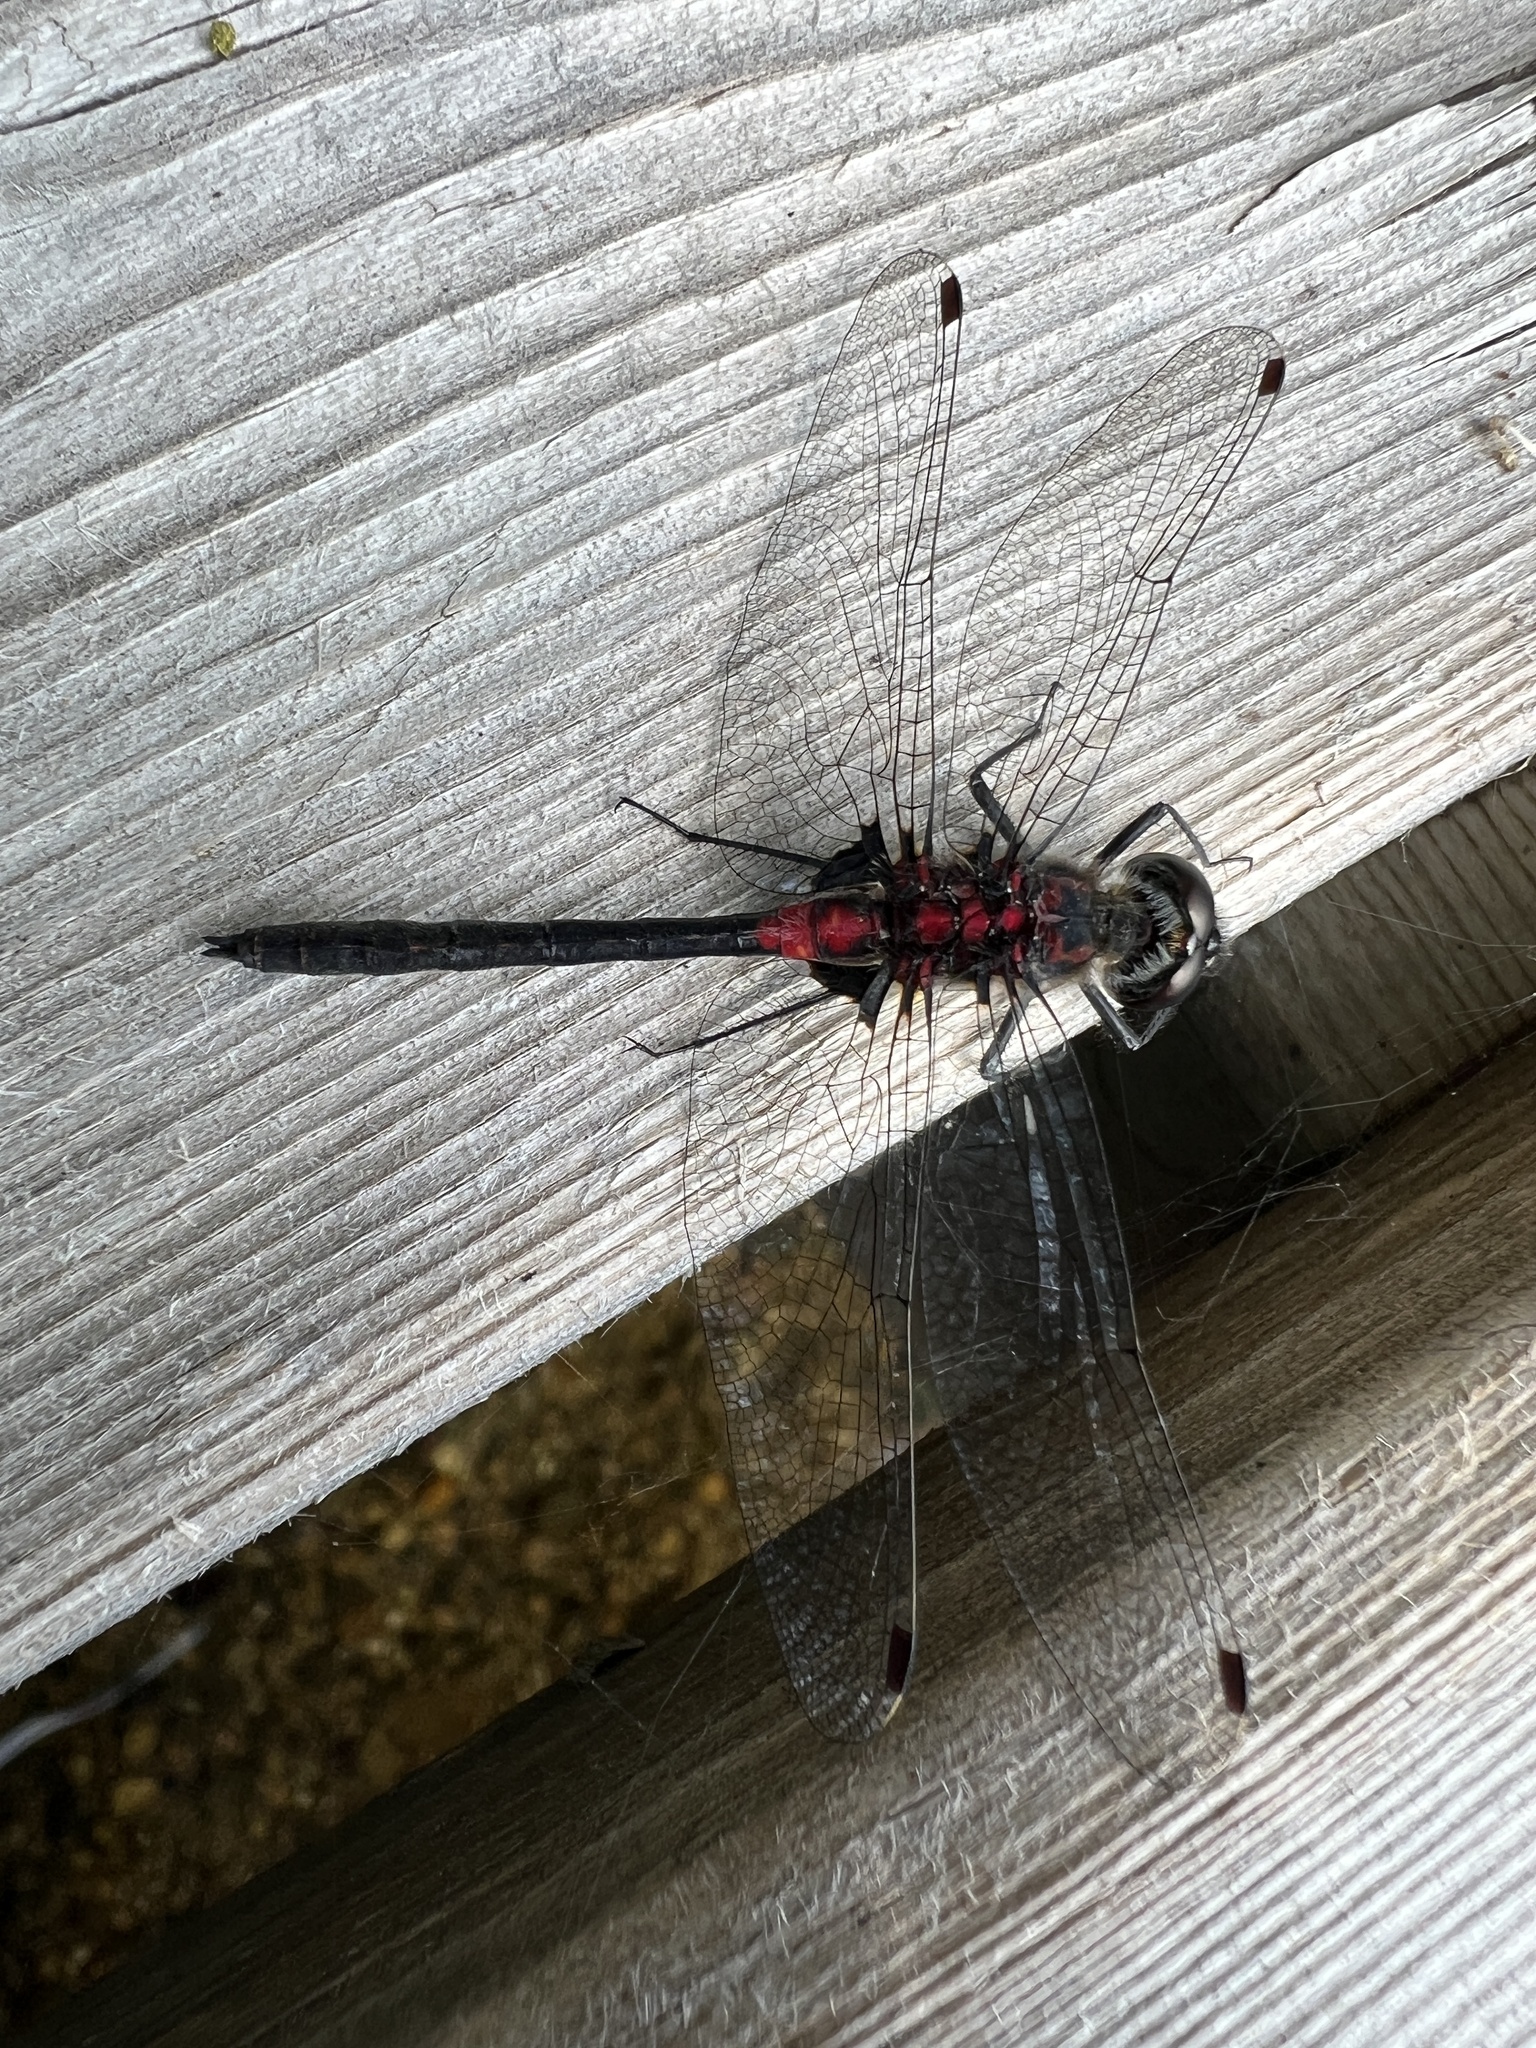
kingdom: Animalia
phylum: Arthropoda
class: Insecta
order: Odonata
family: Libellulidae
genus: Leucorrhinia
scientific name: Leucorrhinia proxima
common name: Belted whiteface
